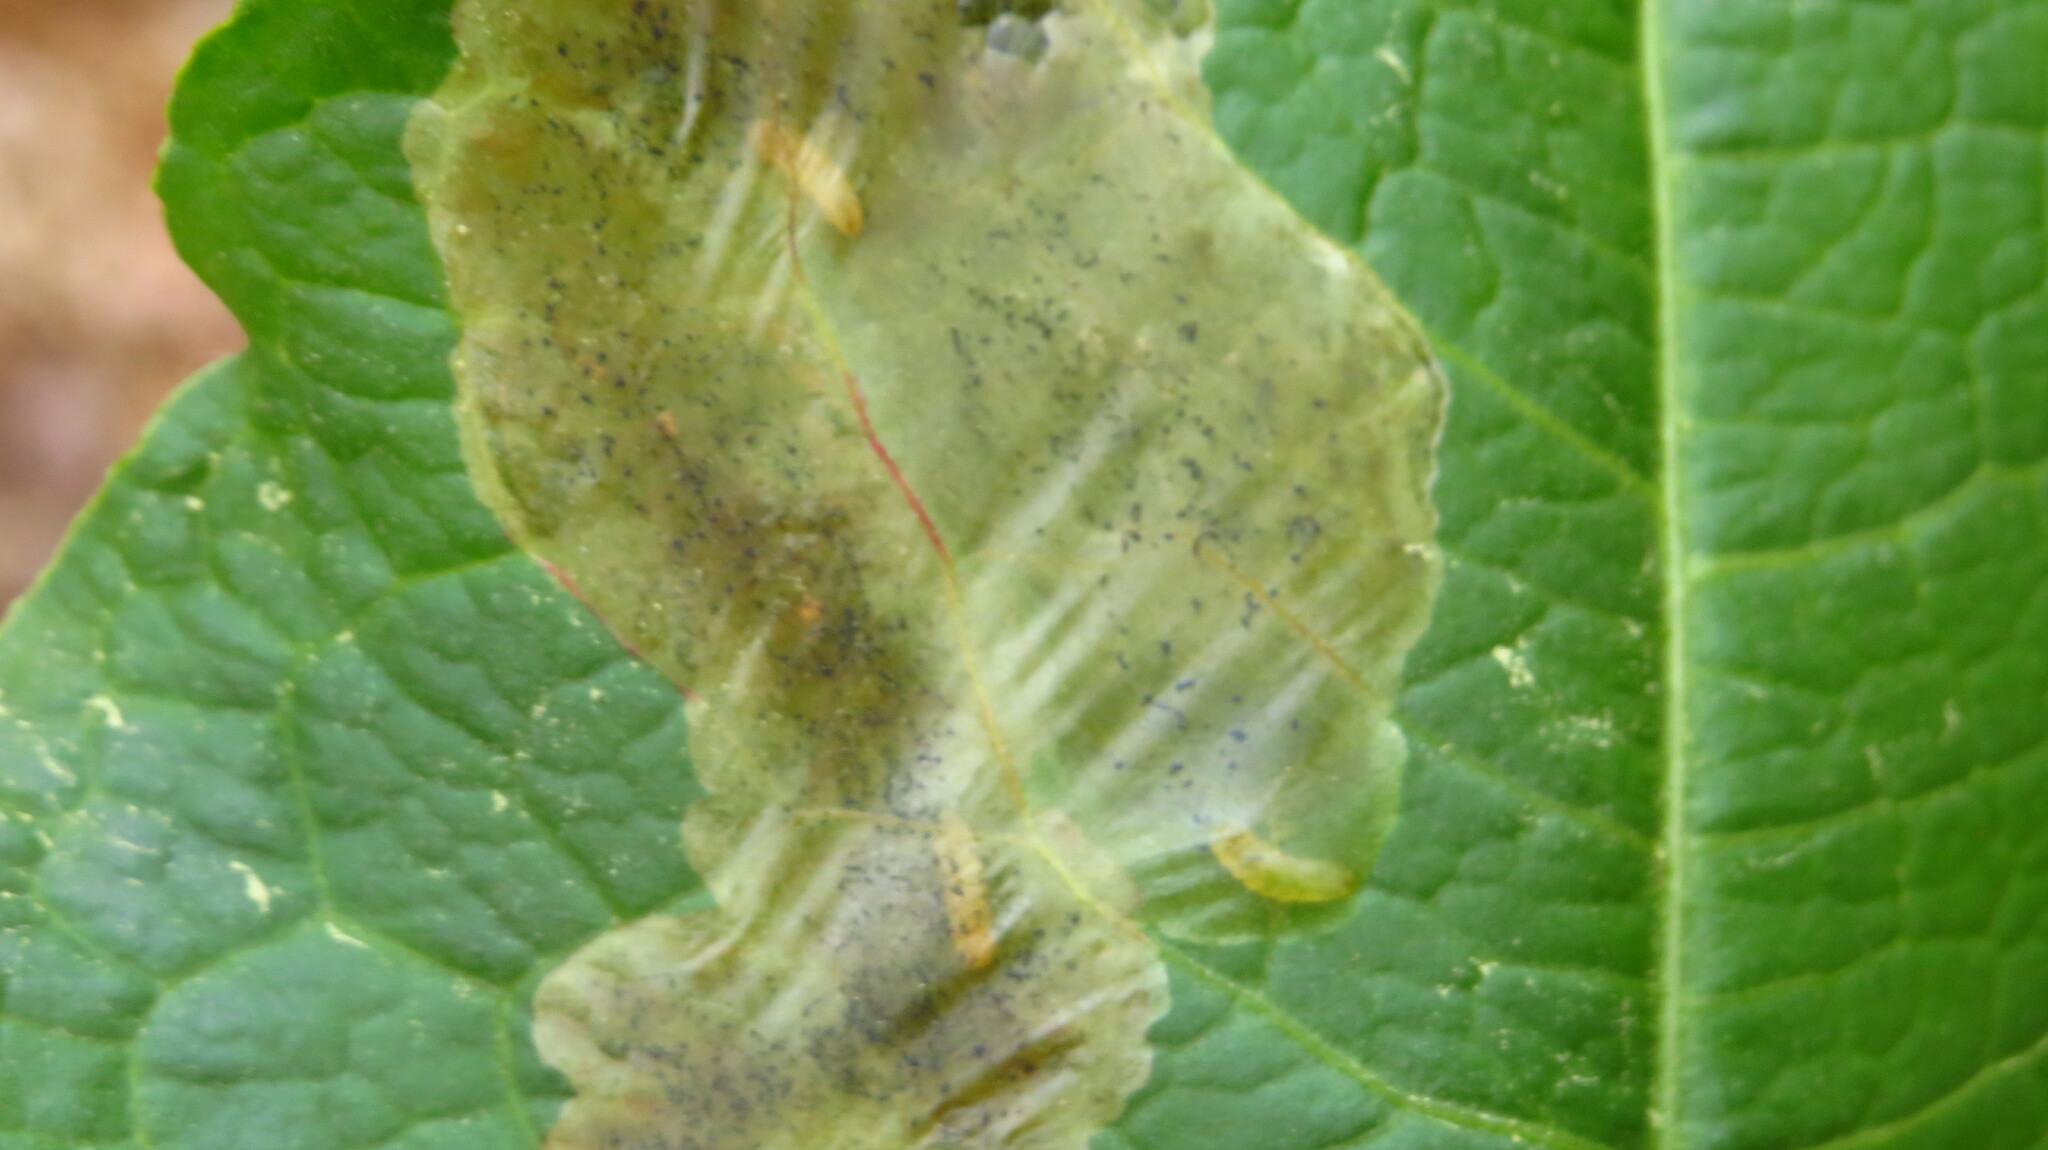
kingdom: Animalia
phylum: Arthropoda
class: Insecta
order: Diptera
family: Anthomyiidae
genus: Pegomya
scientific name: Pegomya bicolor
